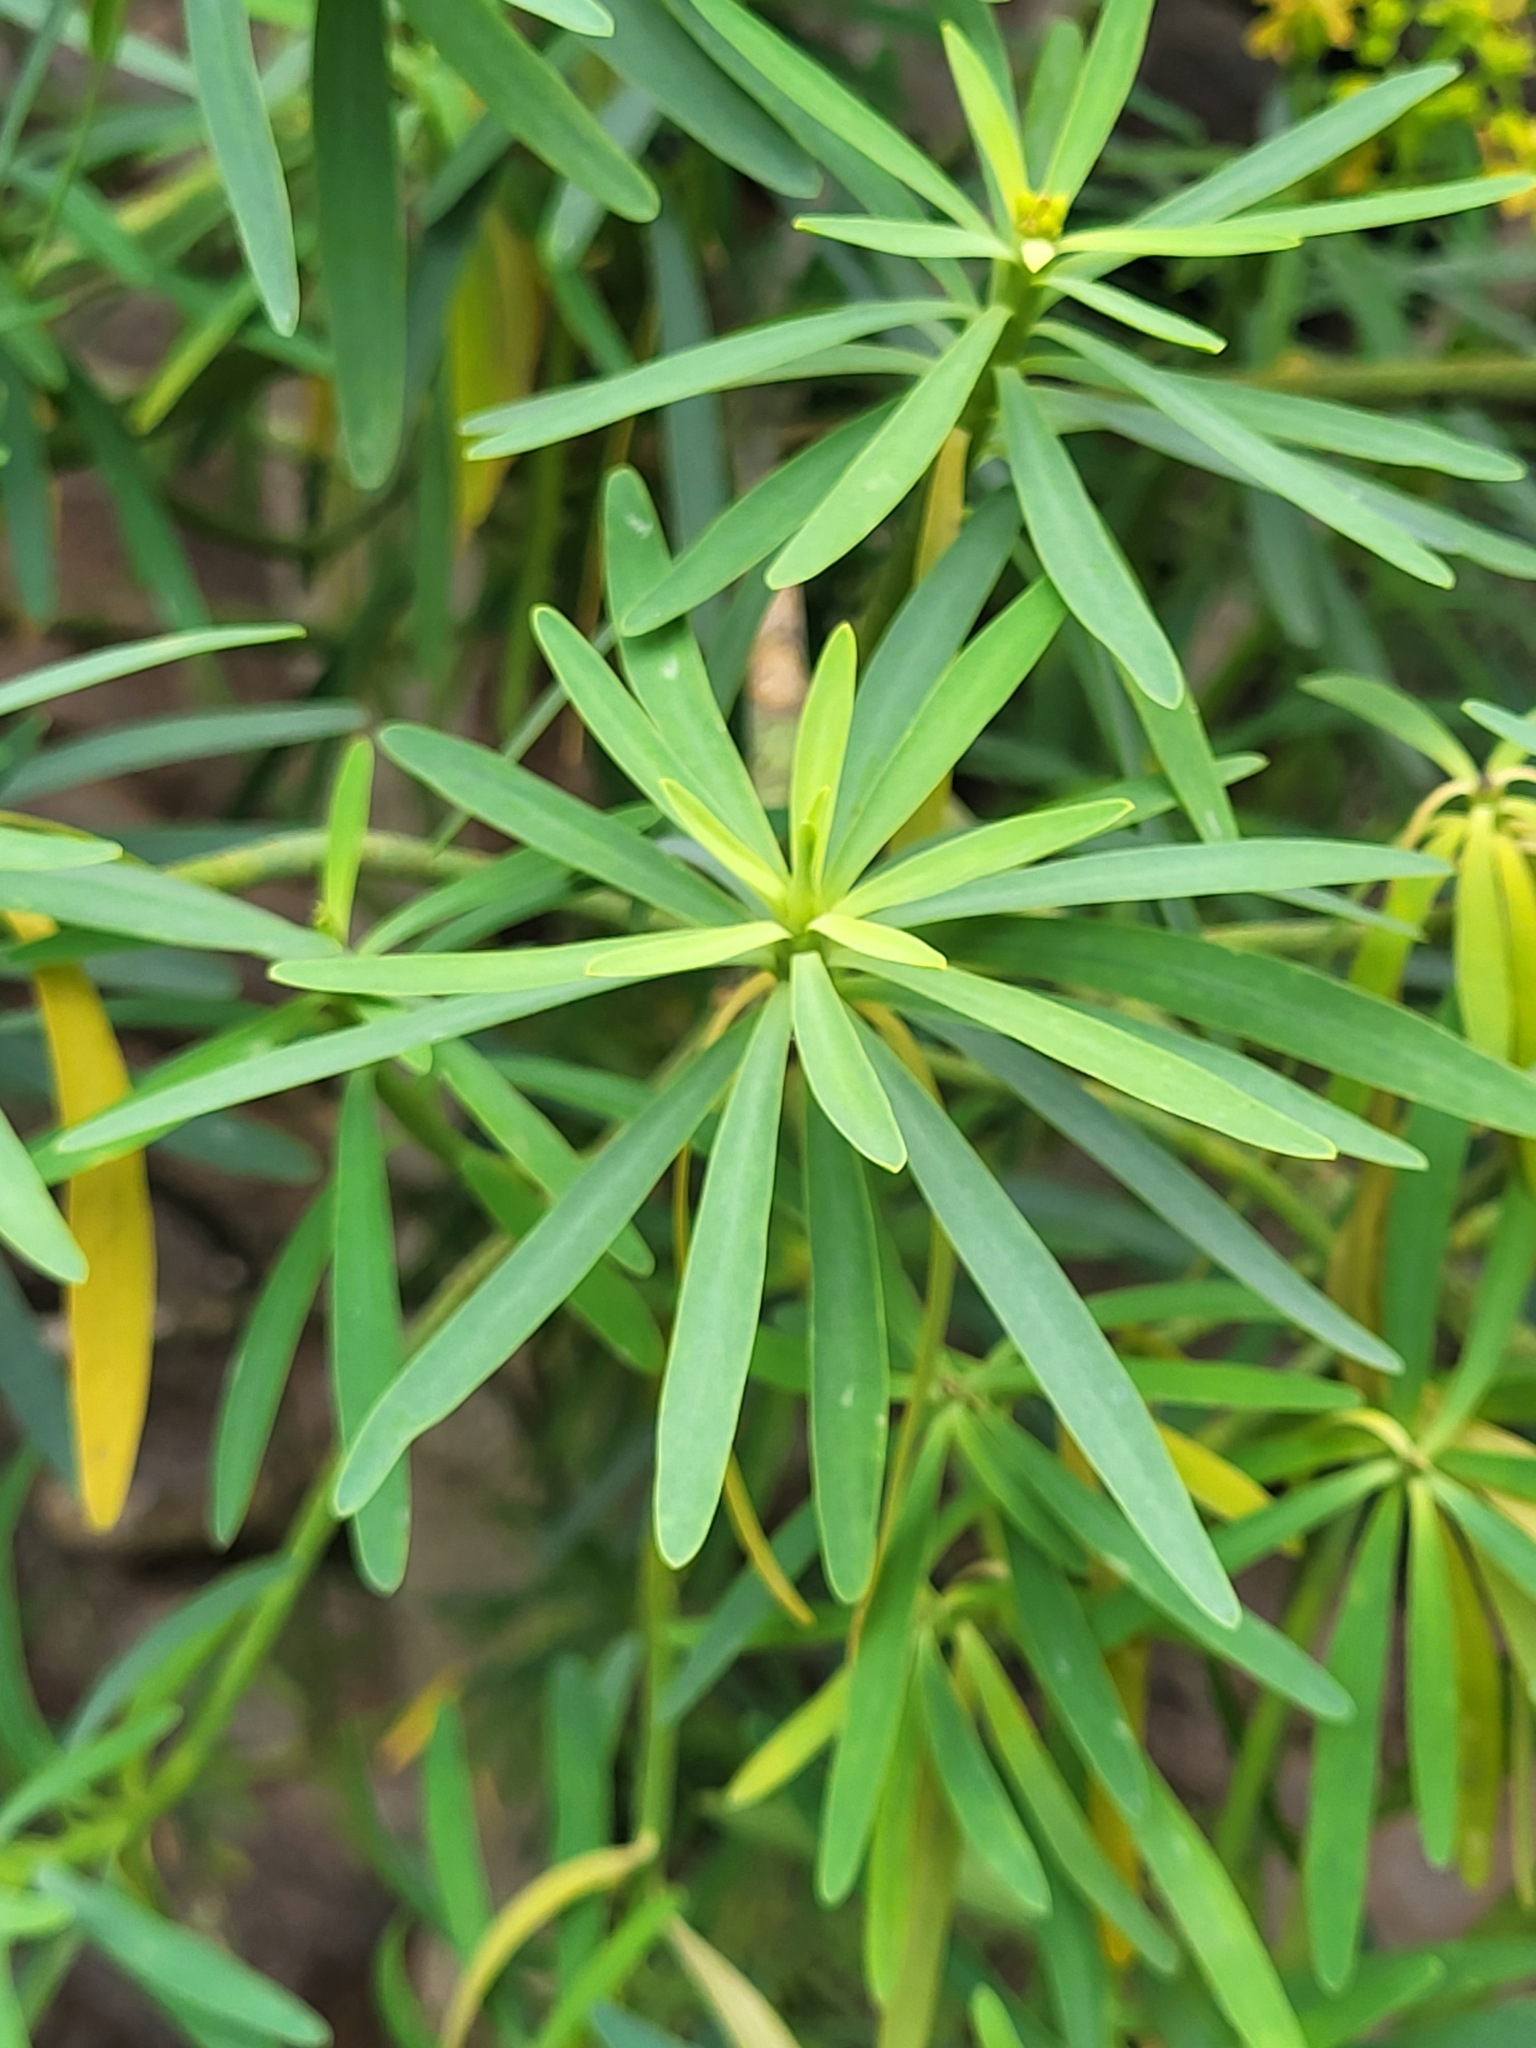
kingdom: Plantae
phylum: Tracheophyta
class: Magnoliopsida
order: Malpighiales
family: Euphorbiaceae
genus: Euphorbia
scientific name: Euphorbia lamarckii
